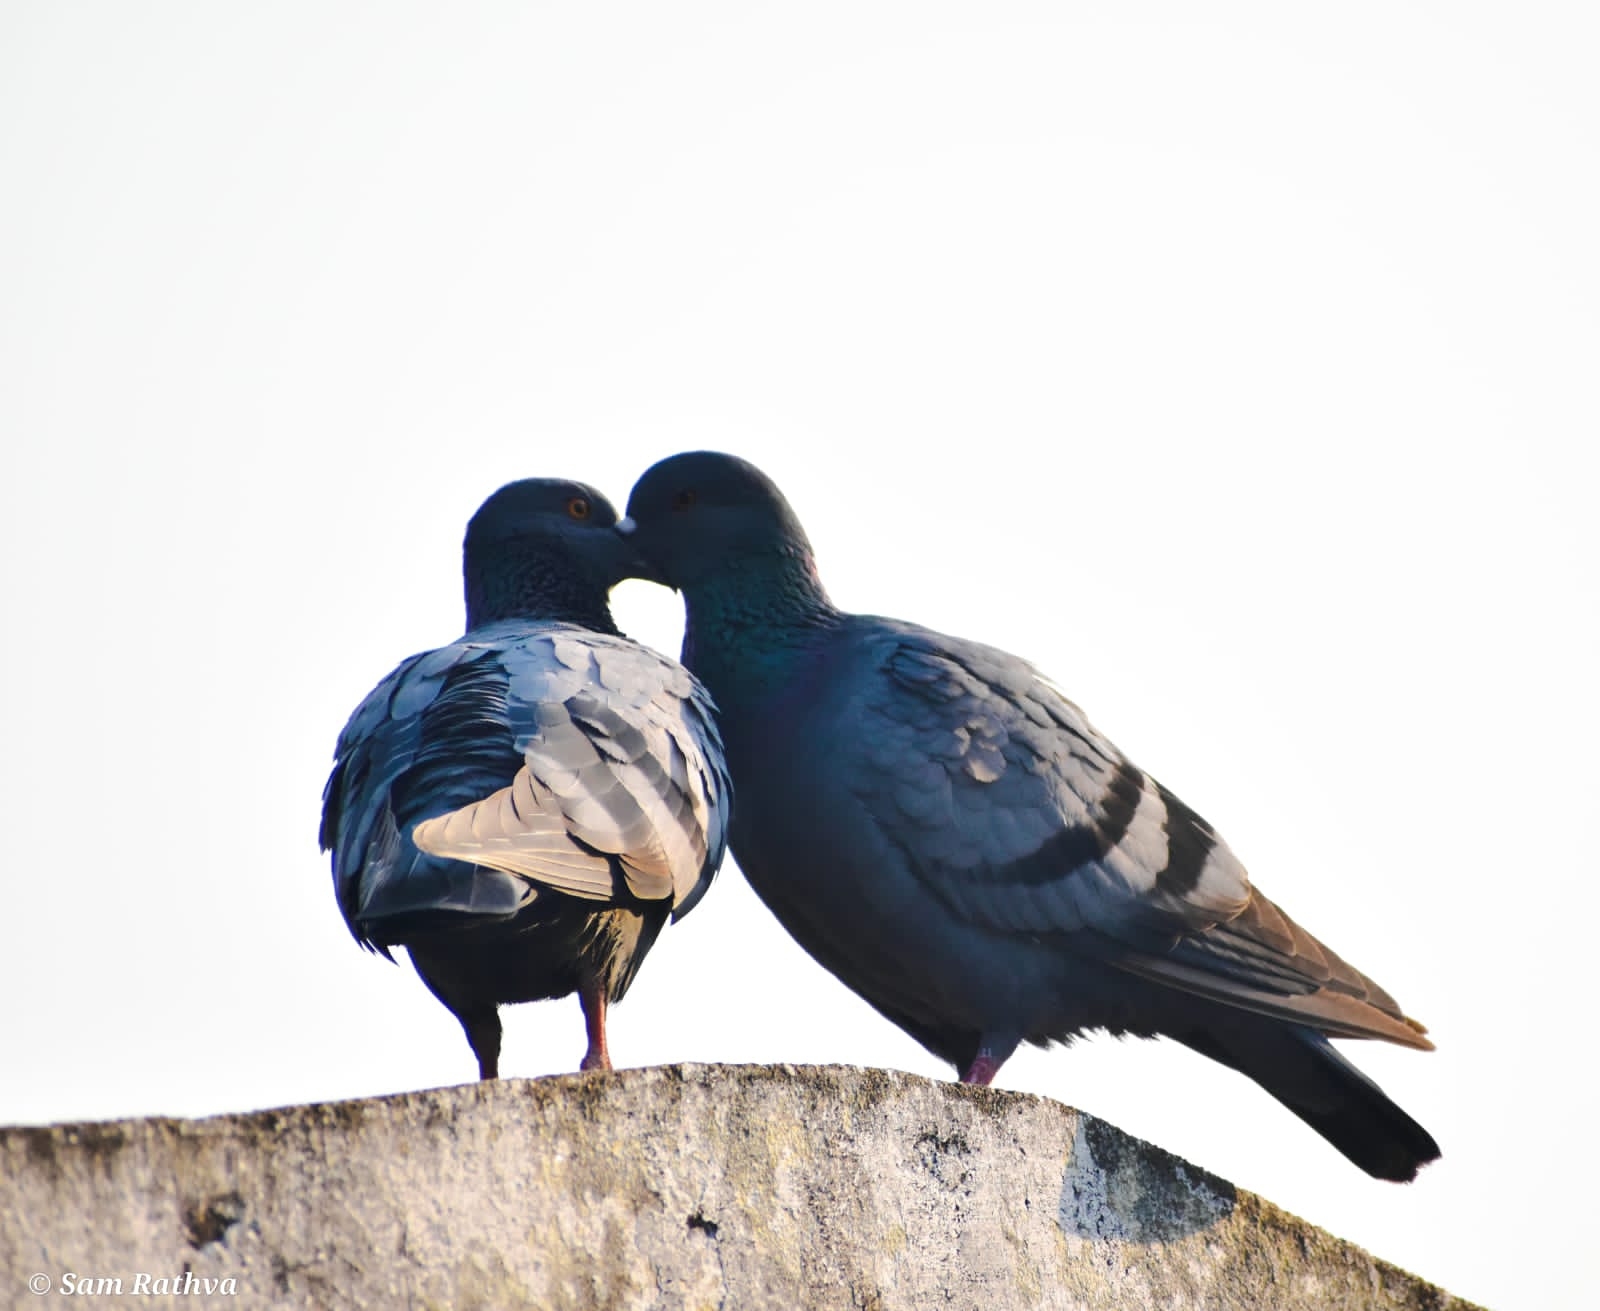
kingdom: Animalia
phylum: Chordata
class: Aves
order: Columbiformes
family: Columbidae
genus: Columba
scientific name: Columba livia
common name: Rock pigeon
